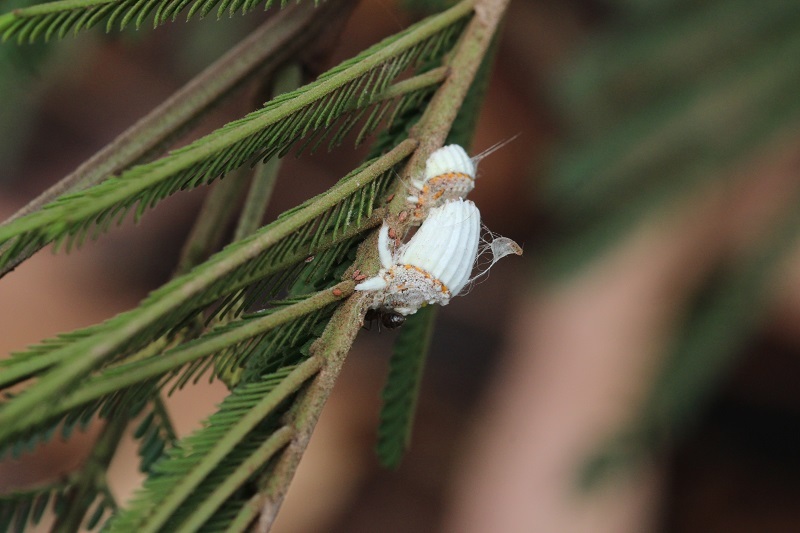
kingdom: Animalia
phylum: Arthropoda
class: Insecta
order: Hemiptera
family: Margarodidae
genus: Icerya
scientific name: Icerya purchasi
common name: Cottony cushion scale
